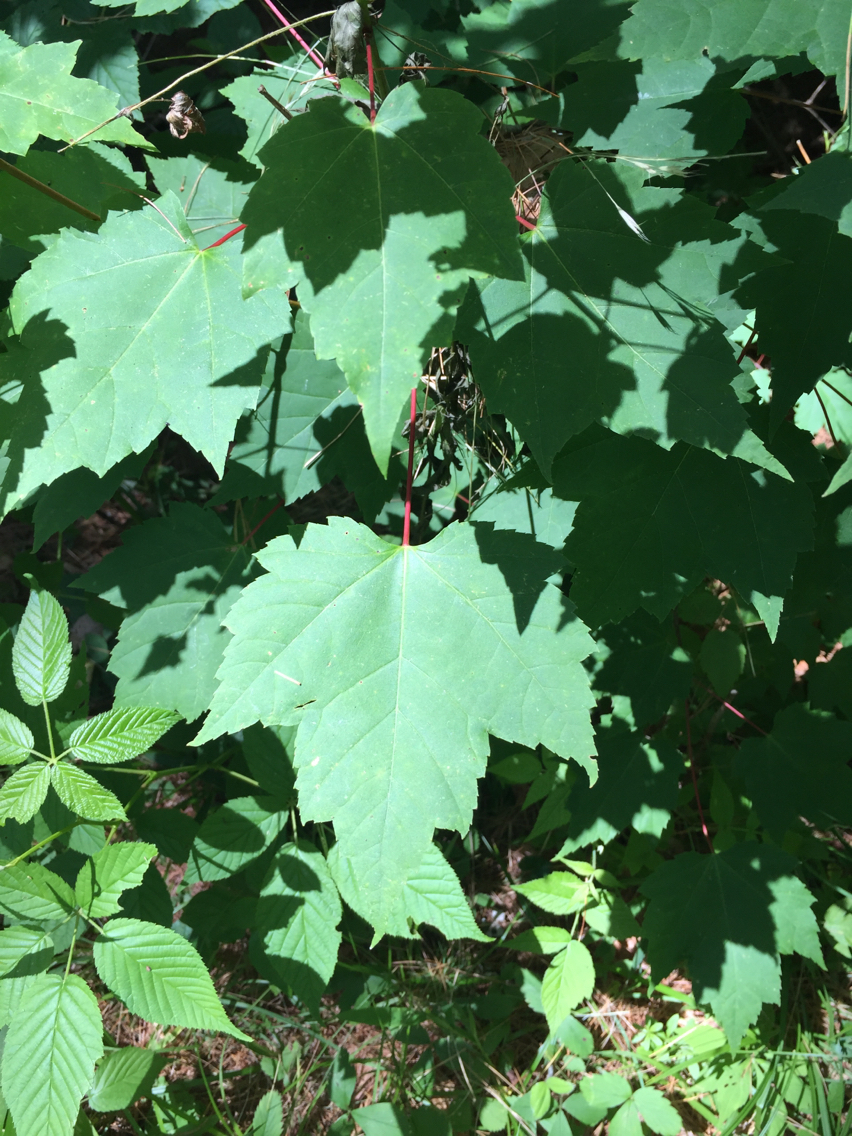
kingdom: Plantae
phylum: Tracheophyta
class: Magnoliopsida
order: Sapindales
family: Sapindaceae
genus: Acer
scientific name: Acer rubrum
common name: Red maple
